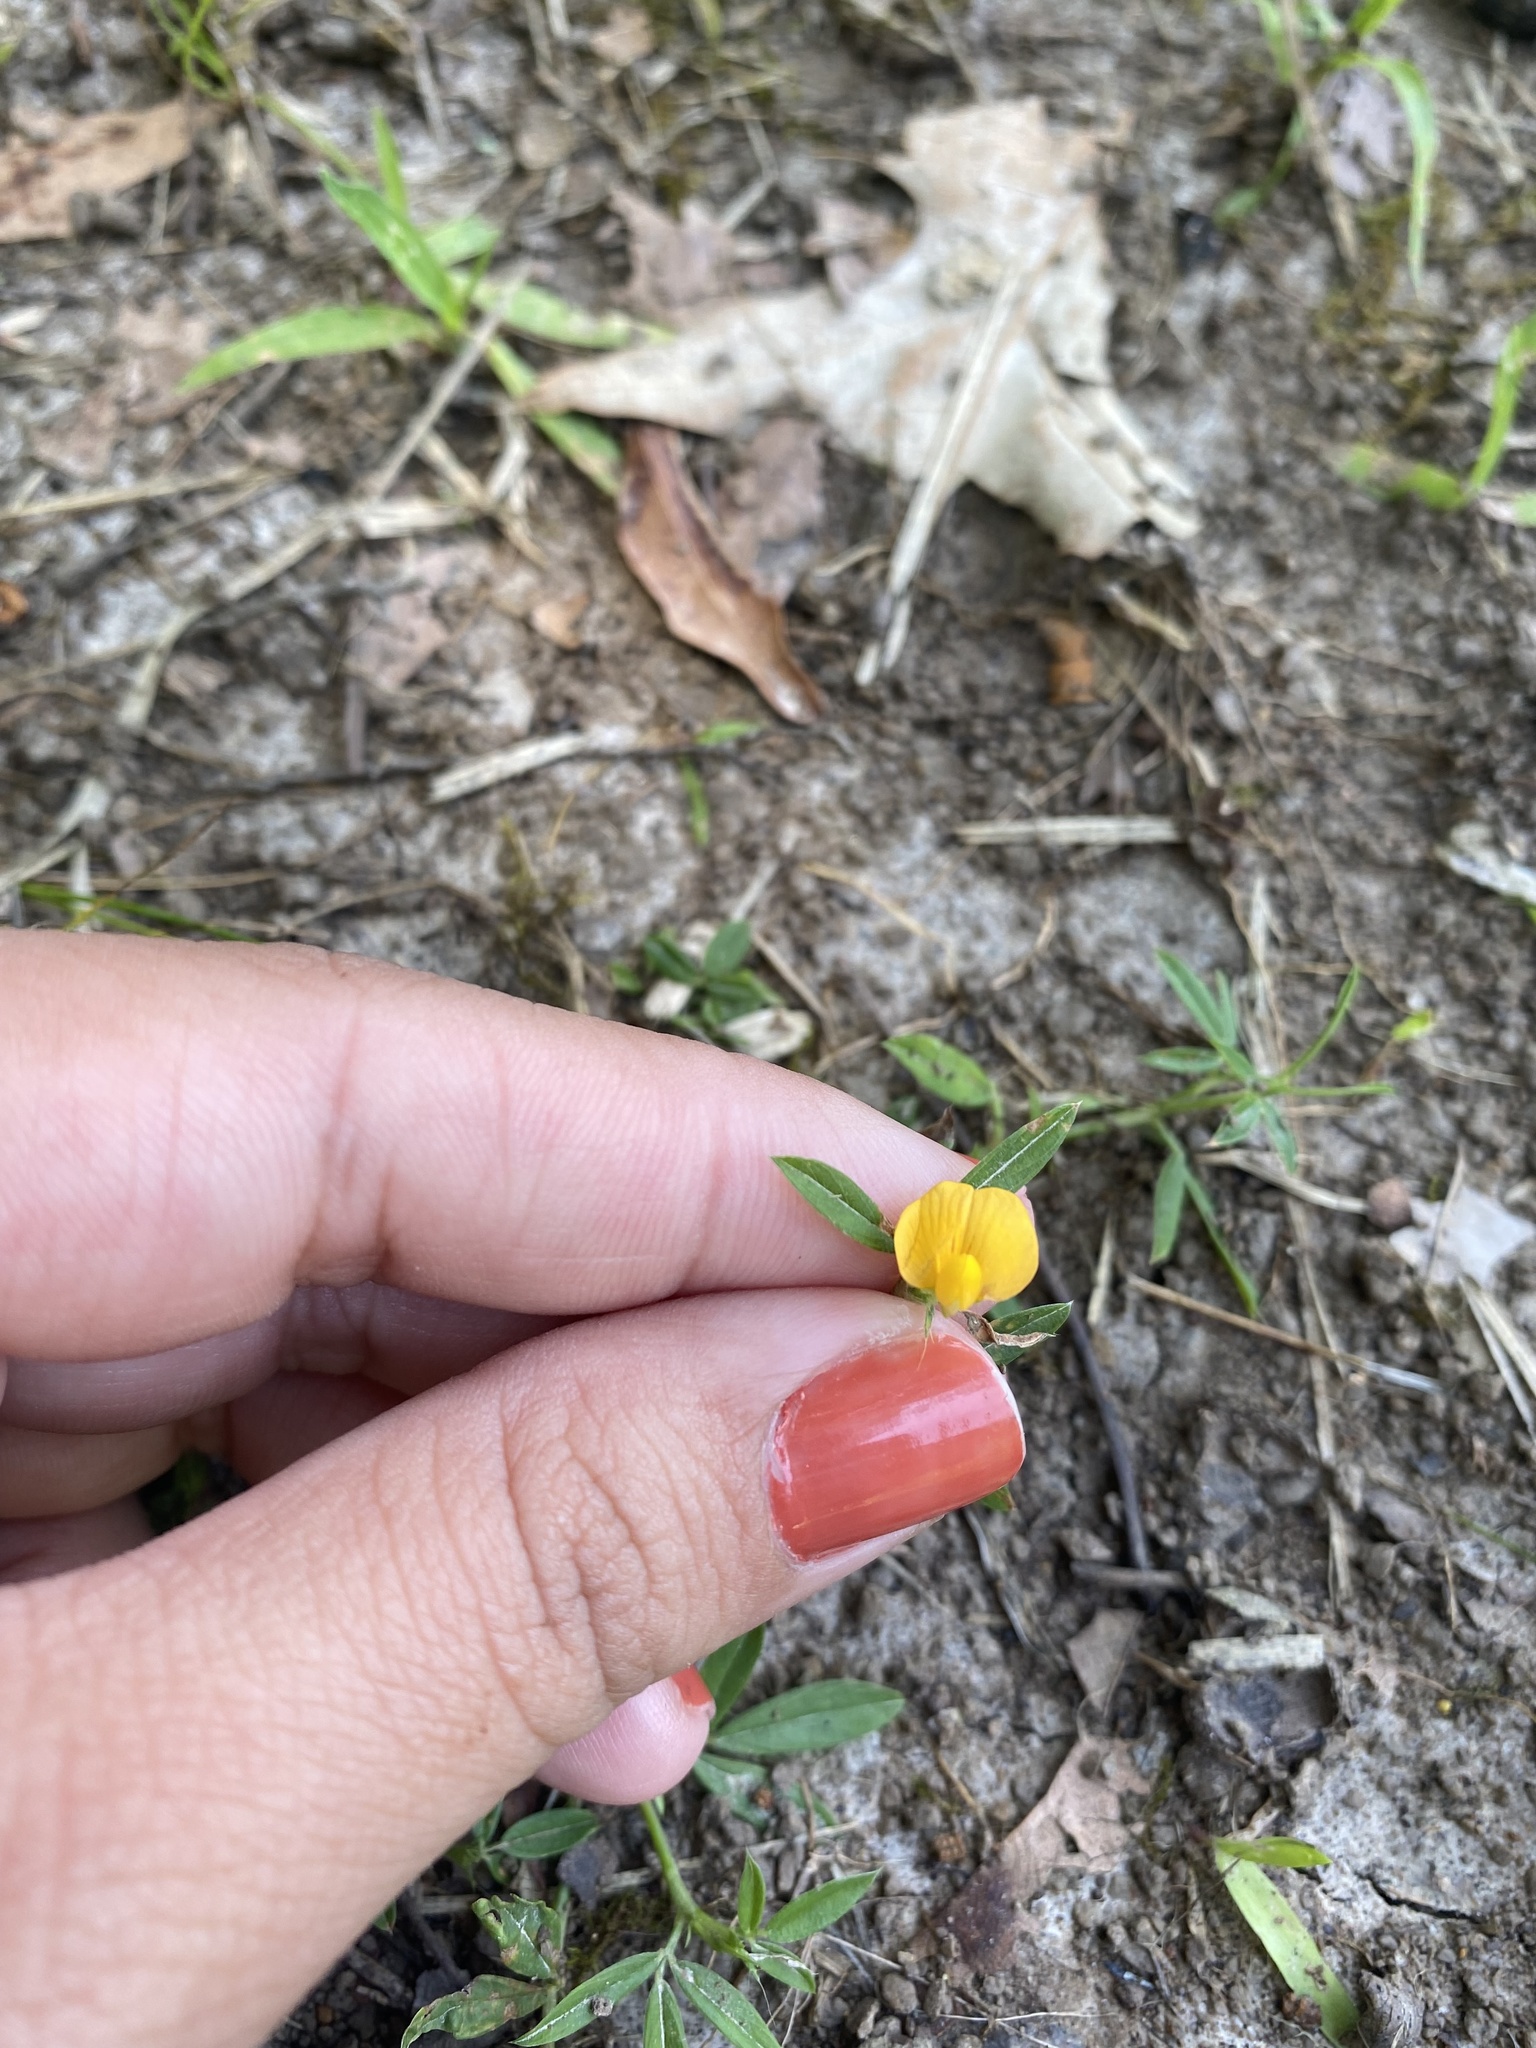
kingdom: Plantae
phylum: Tracheophyta
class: Magnoliopsida
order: Fabales
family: Fabaceae
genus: Stylosanthes
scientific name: Stylosanthes biflora
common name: Two-flower pencil-flower
